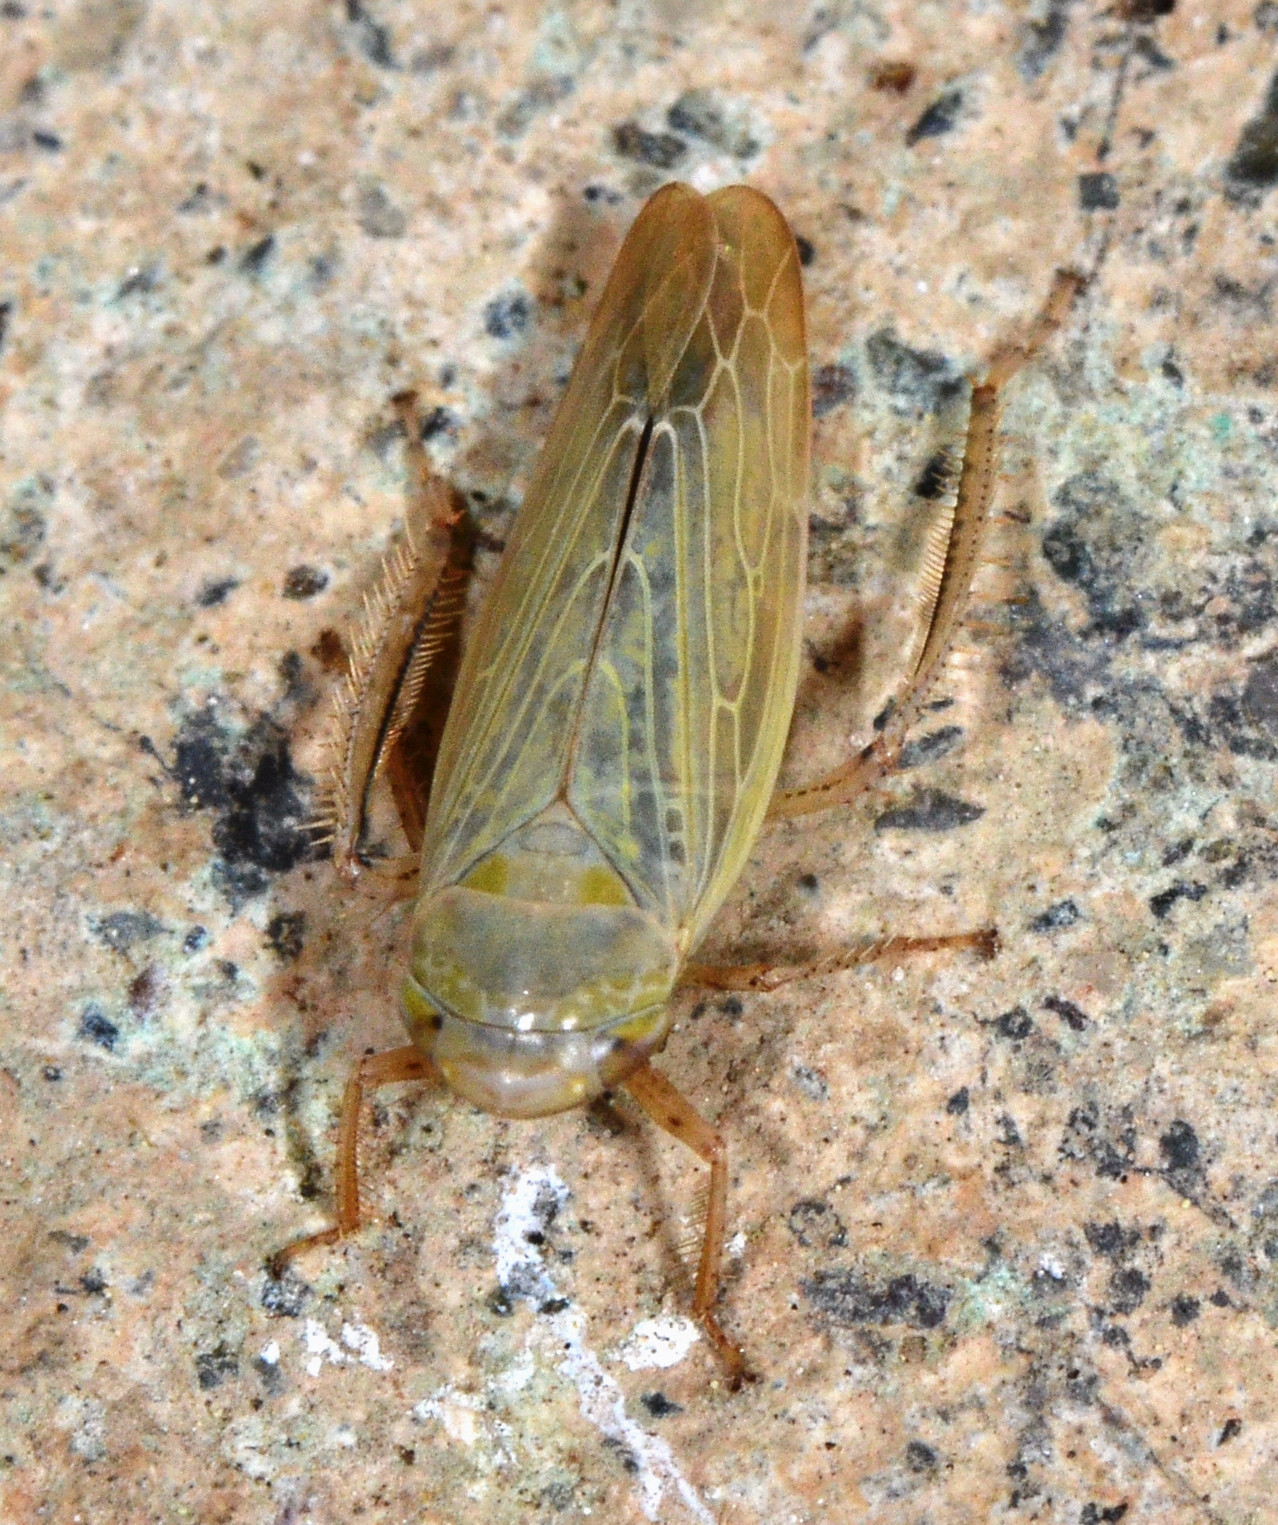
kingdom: Animalia
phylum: Arthropoda
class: Insecta
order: Hemiptera
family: Cicadellidae
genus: Thamnotettix
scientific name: Thamnotettix zelleri
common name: Leafhopper
